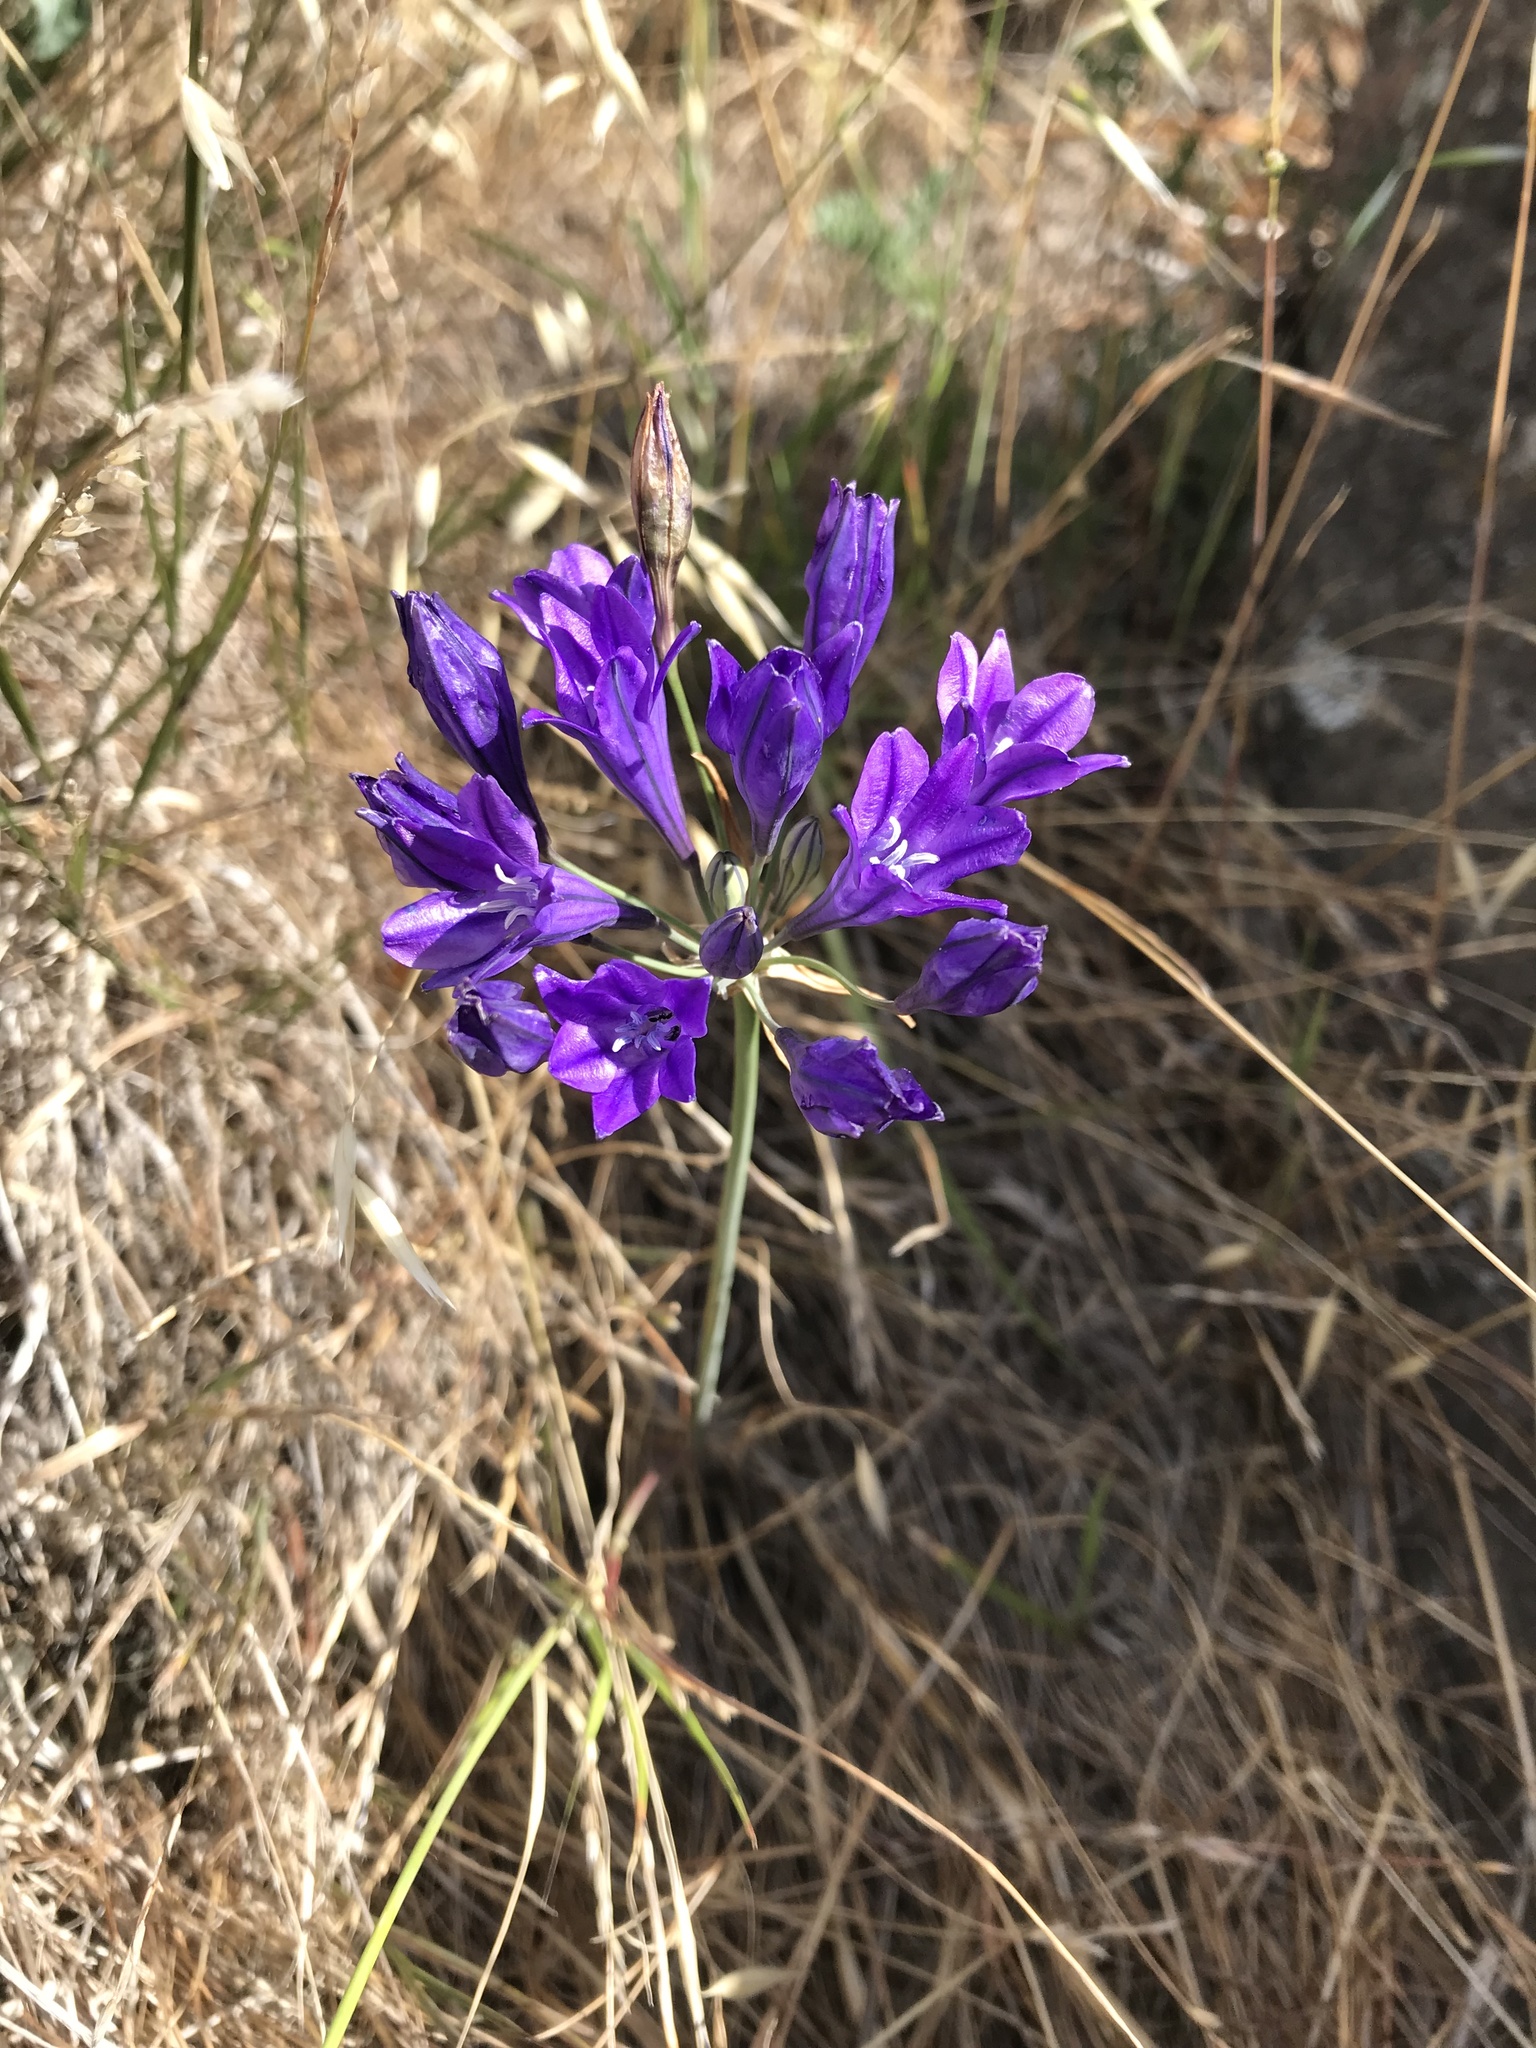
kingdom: Plantae
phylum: Tracheophyta
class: Liliopsida
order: Asparagales
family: Asparagaceae
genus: Triteleia
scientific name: Triteleia laxa
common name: Triplet-lily
